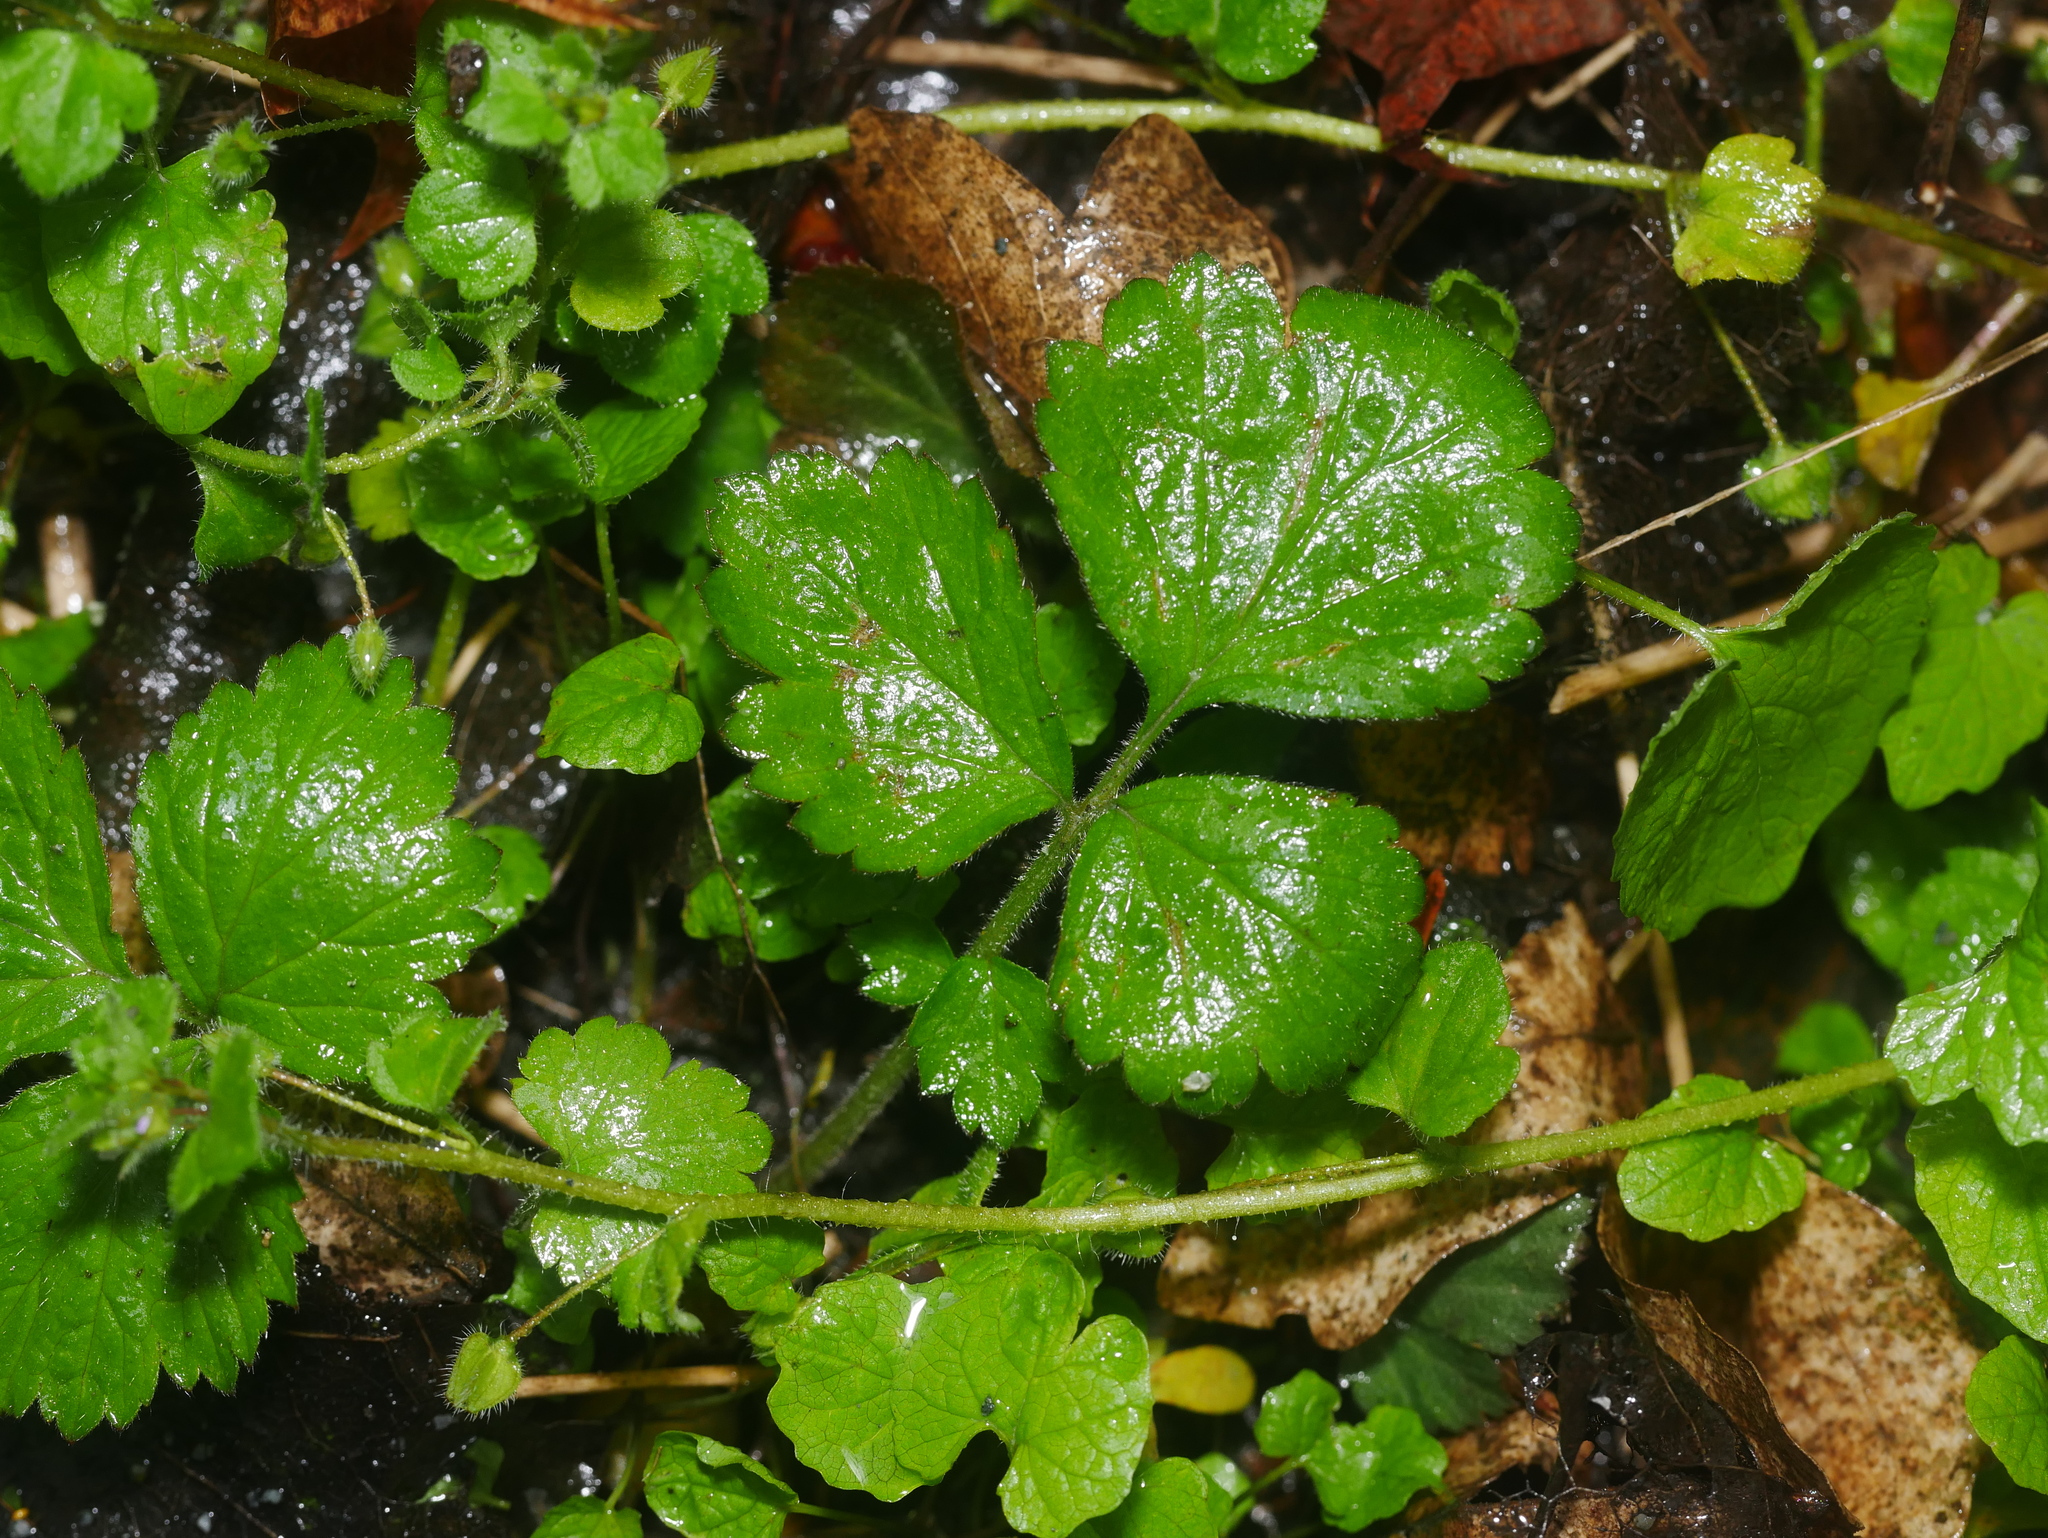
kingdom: Plantae
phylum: Tracheophyta
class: Magnoliopsida
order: Rosales
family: Rosaceae
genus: Geum
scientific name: Geum urbanum
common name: Wood avens
